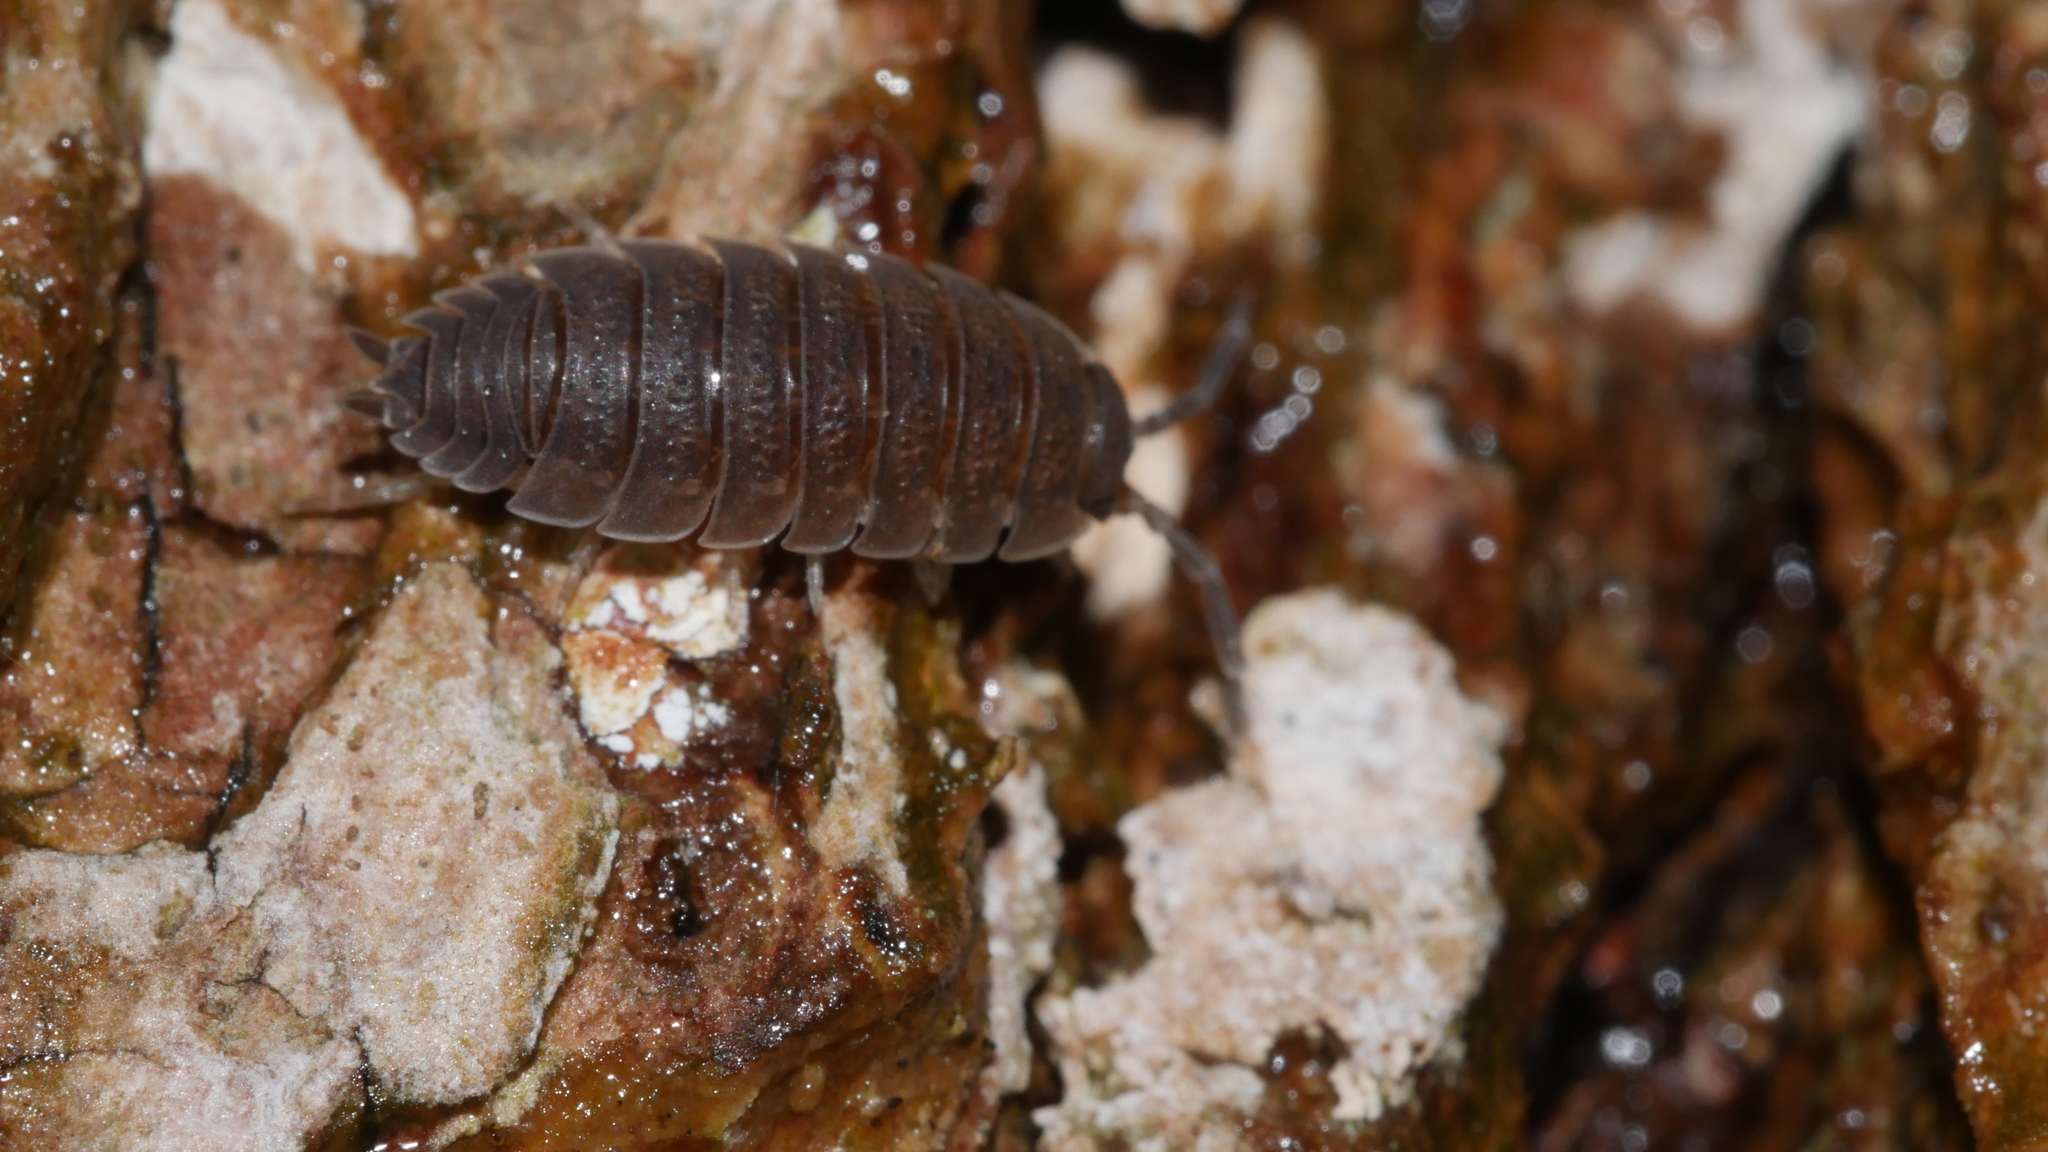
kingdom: Animalia
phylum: Arthropoda
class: Malacostraca
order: Isopoda
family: Porcellionidae
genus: Porcellio
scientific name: Porcellio scaber
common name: Common rough woodlouse
